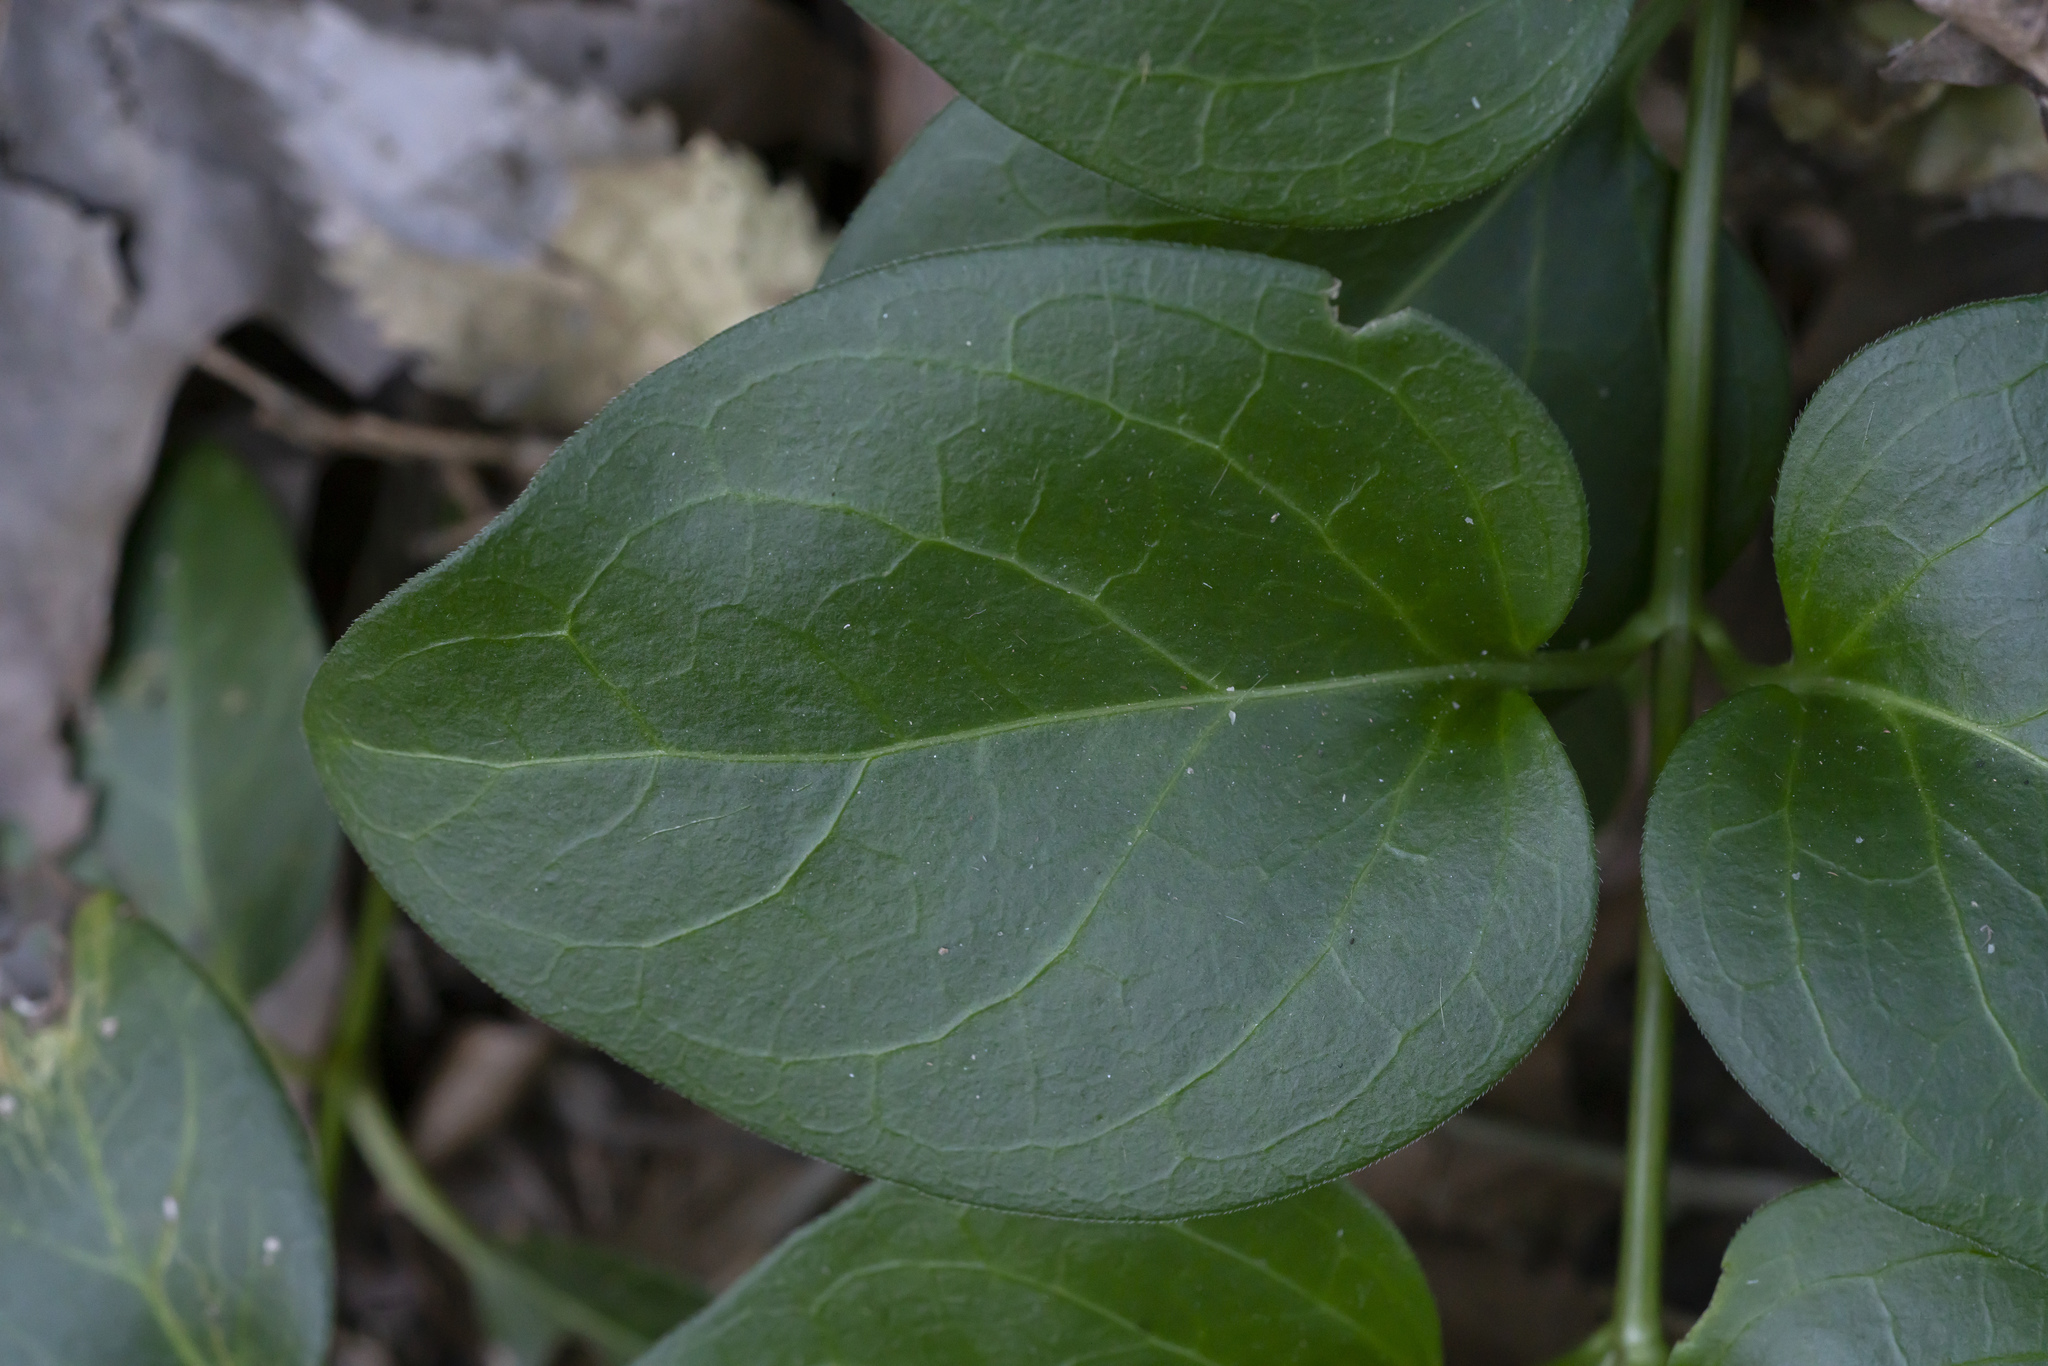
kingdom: Plantae
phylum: Tracheophyta
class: Magnoliopsida
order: Gentianales
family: Apocynaceae
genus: Vinca
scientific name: Vinca major
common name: Greater periwinkle
